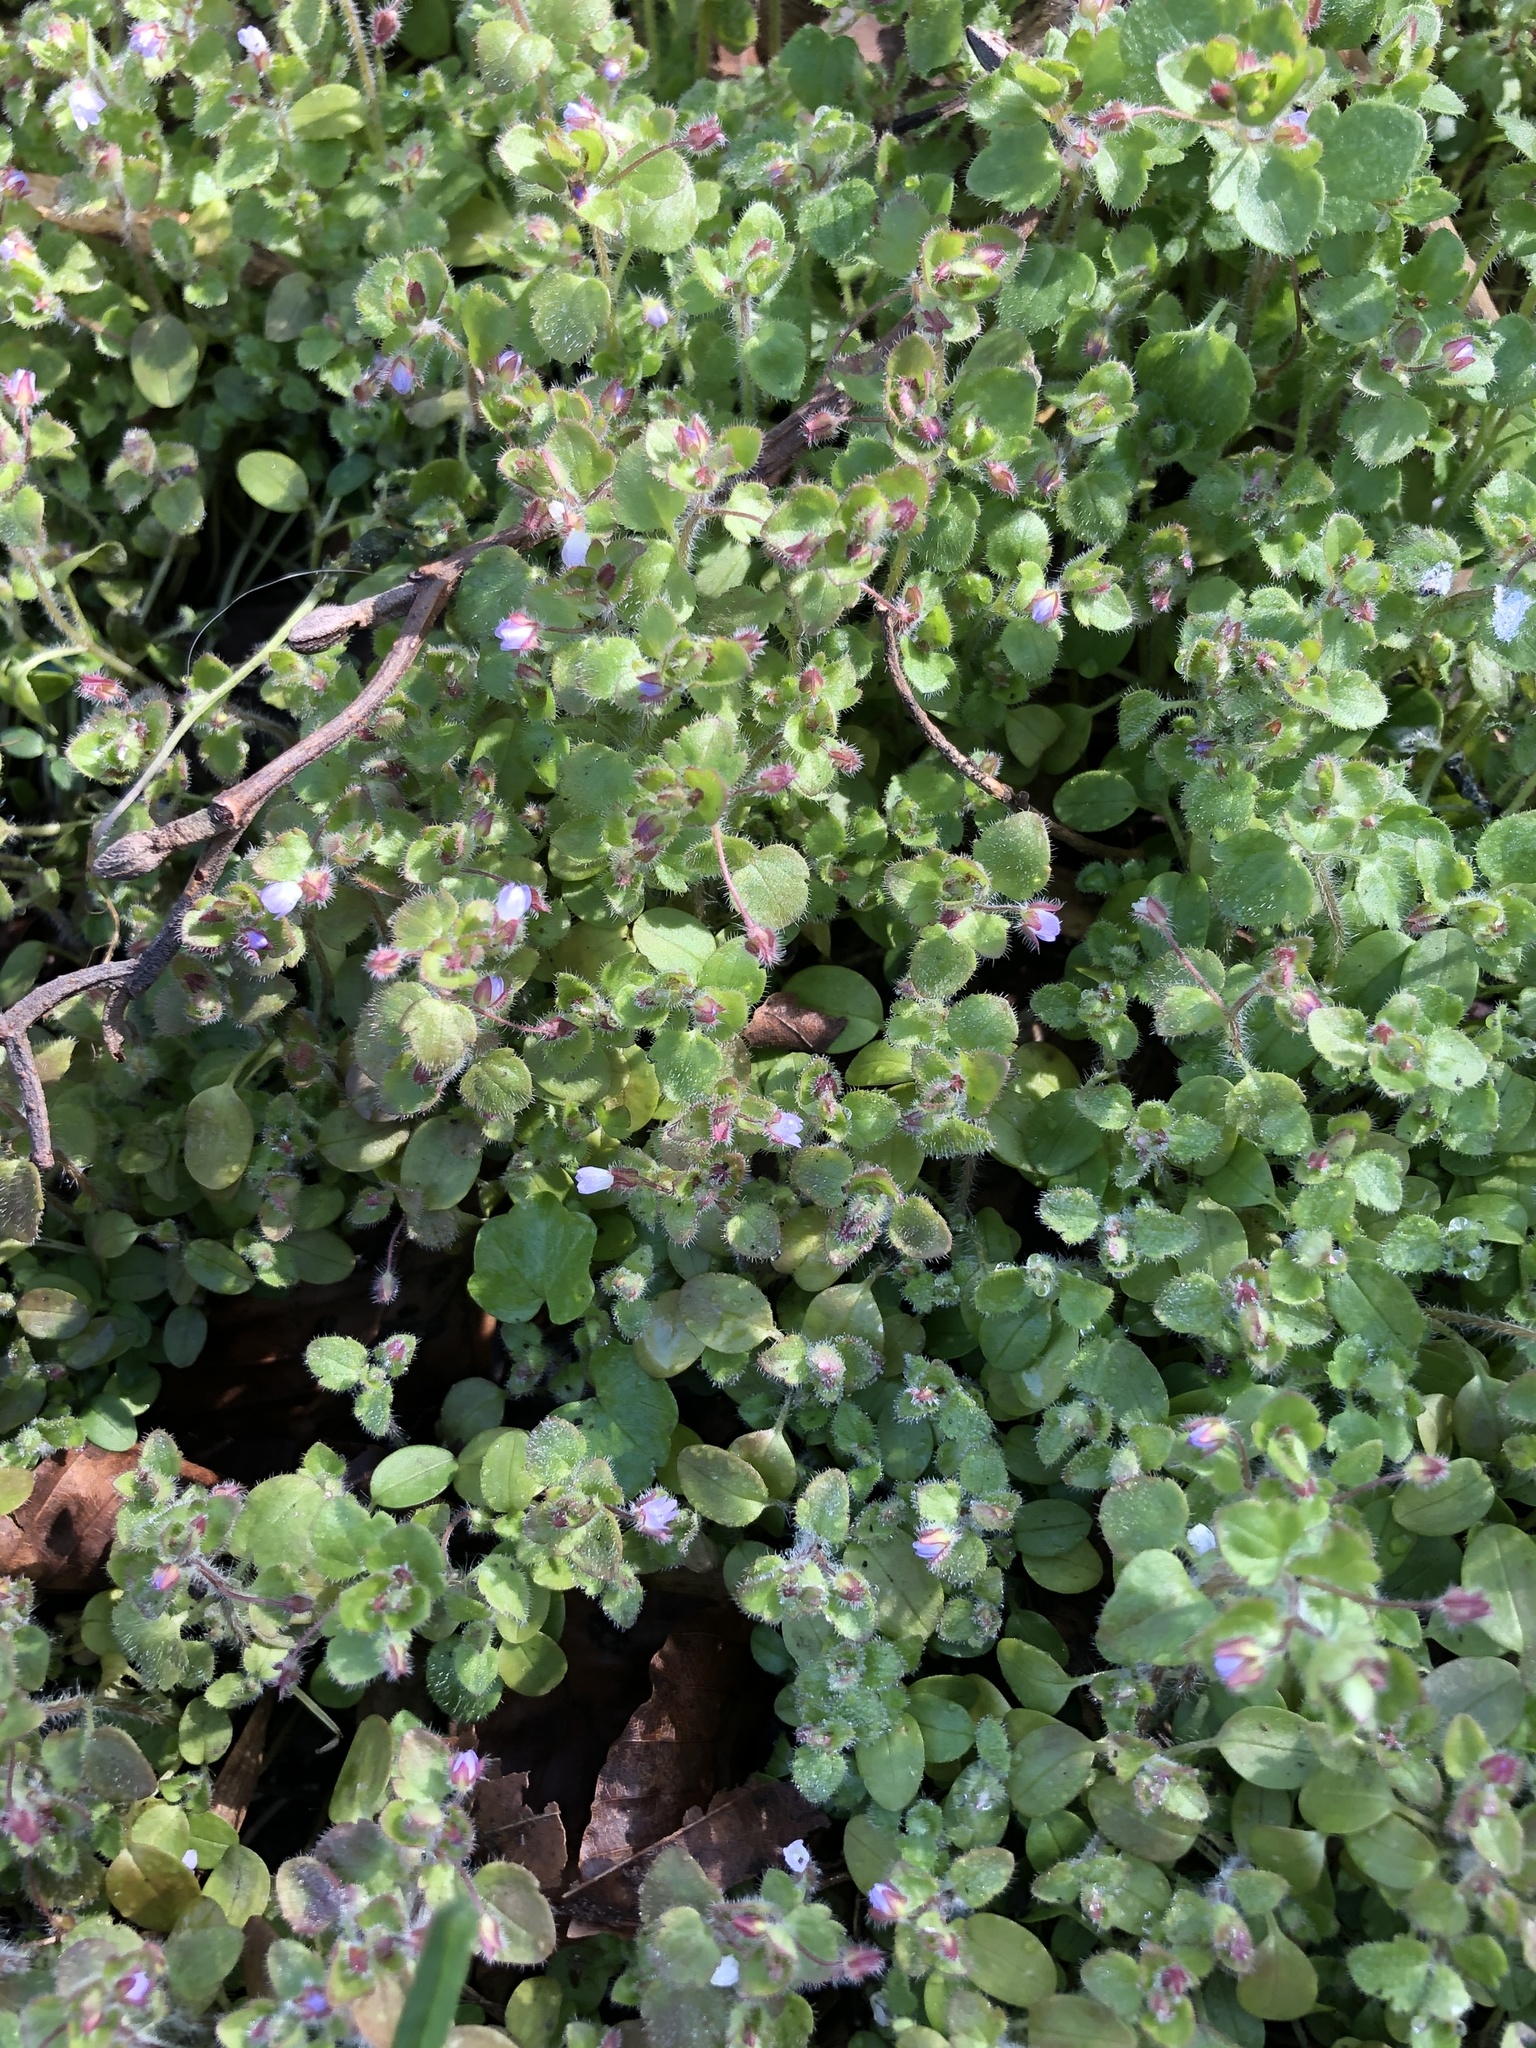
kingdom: Plantae
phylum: Tracheophyta
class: Magnoliopsida
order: Lamiales
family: Plantaginaceae
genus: Veronica
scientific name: Veronica sublobata
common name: False ivy-leaved speedwell
